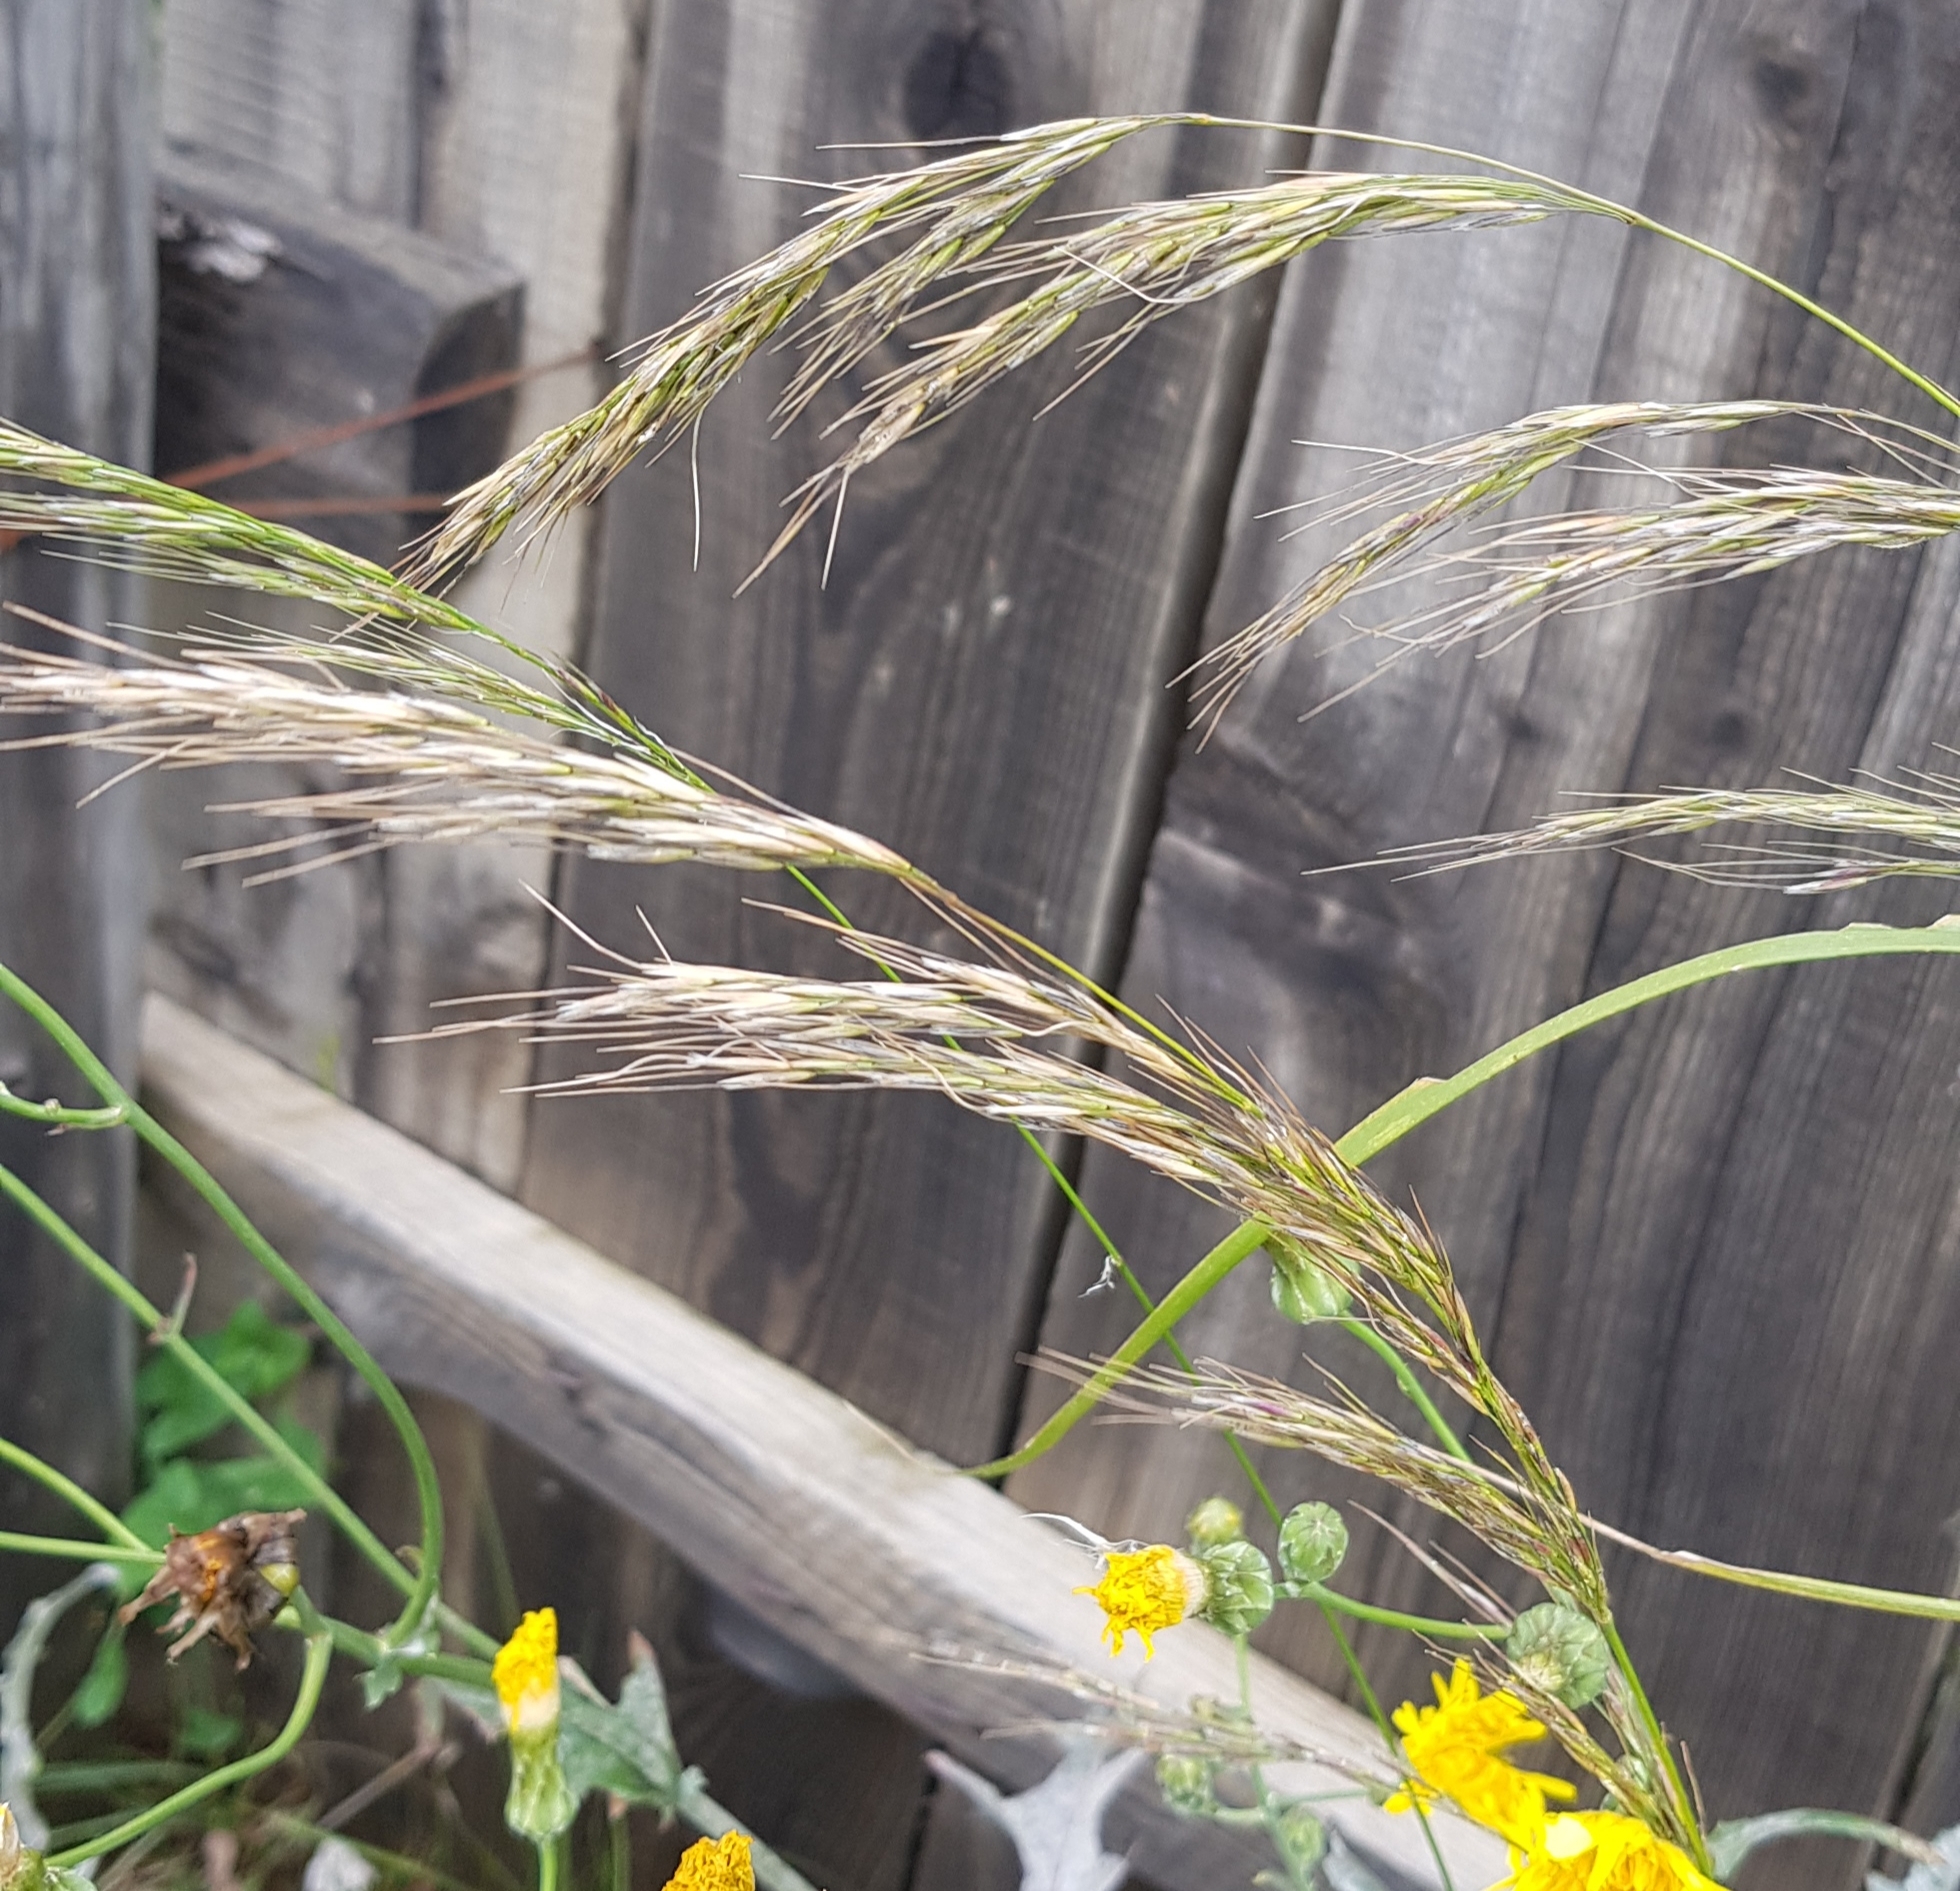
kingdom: Plantae
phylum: Tracheophyta
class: Liliopsida
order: Poales
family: Poaceae
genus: Achnatherum
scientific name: Achnatherum sibiricum
